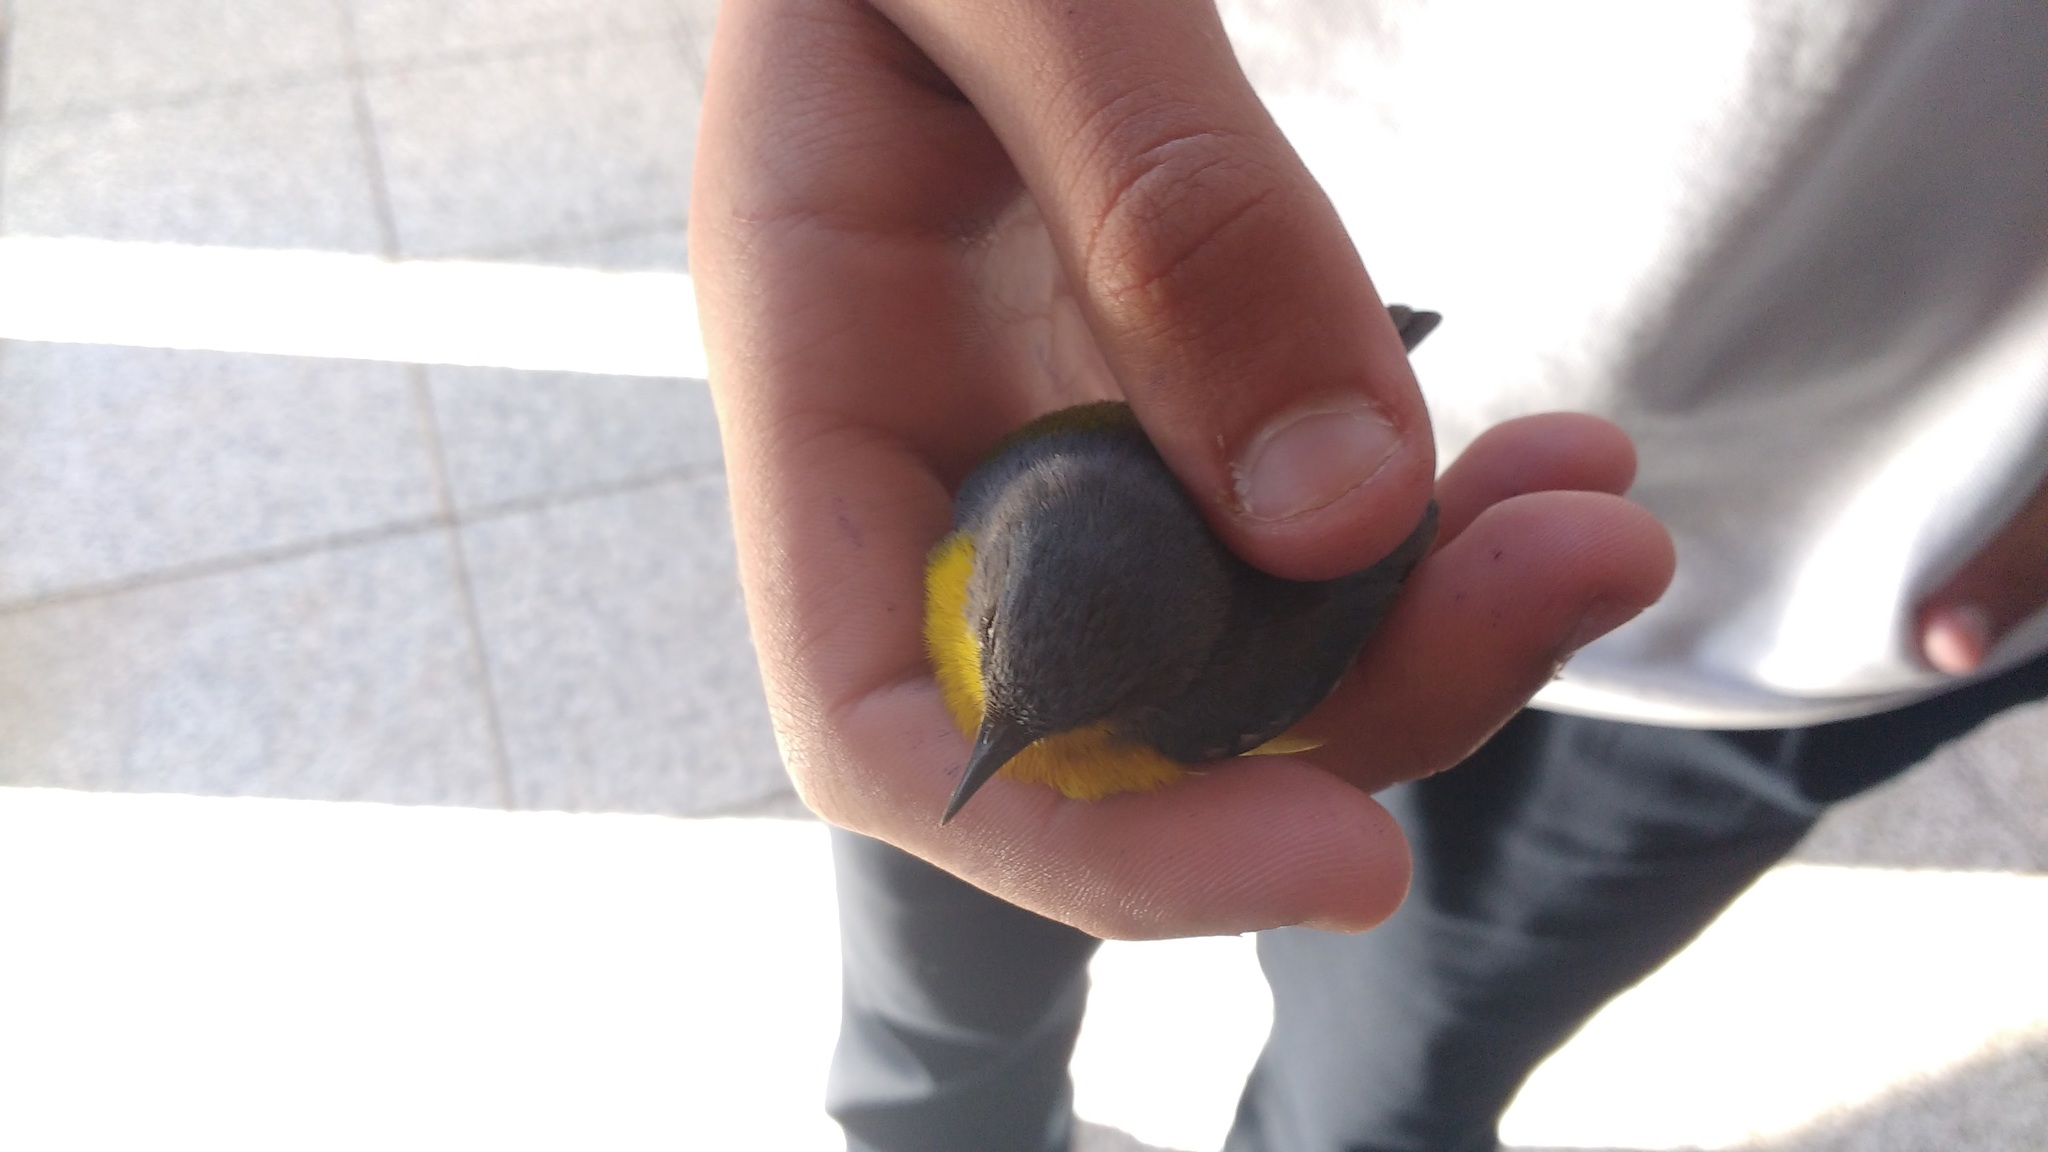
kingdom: Animalia
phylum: Chordata
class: Aves
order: Passeriformes
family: Parulidae
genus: Setophaga
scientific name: Setophaga pitiayumi
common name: Tropical parula
